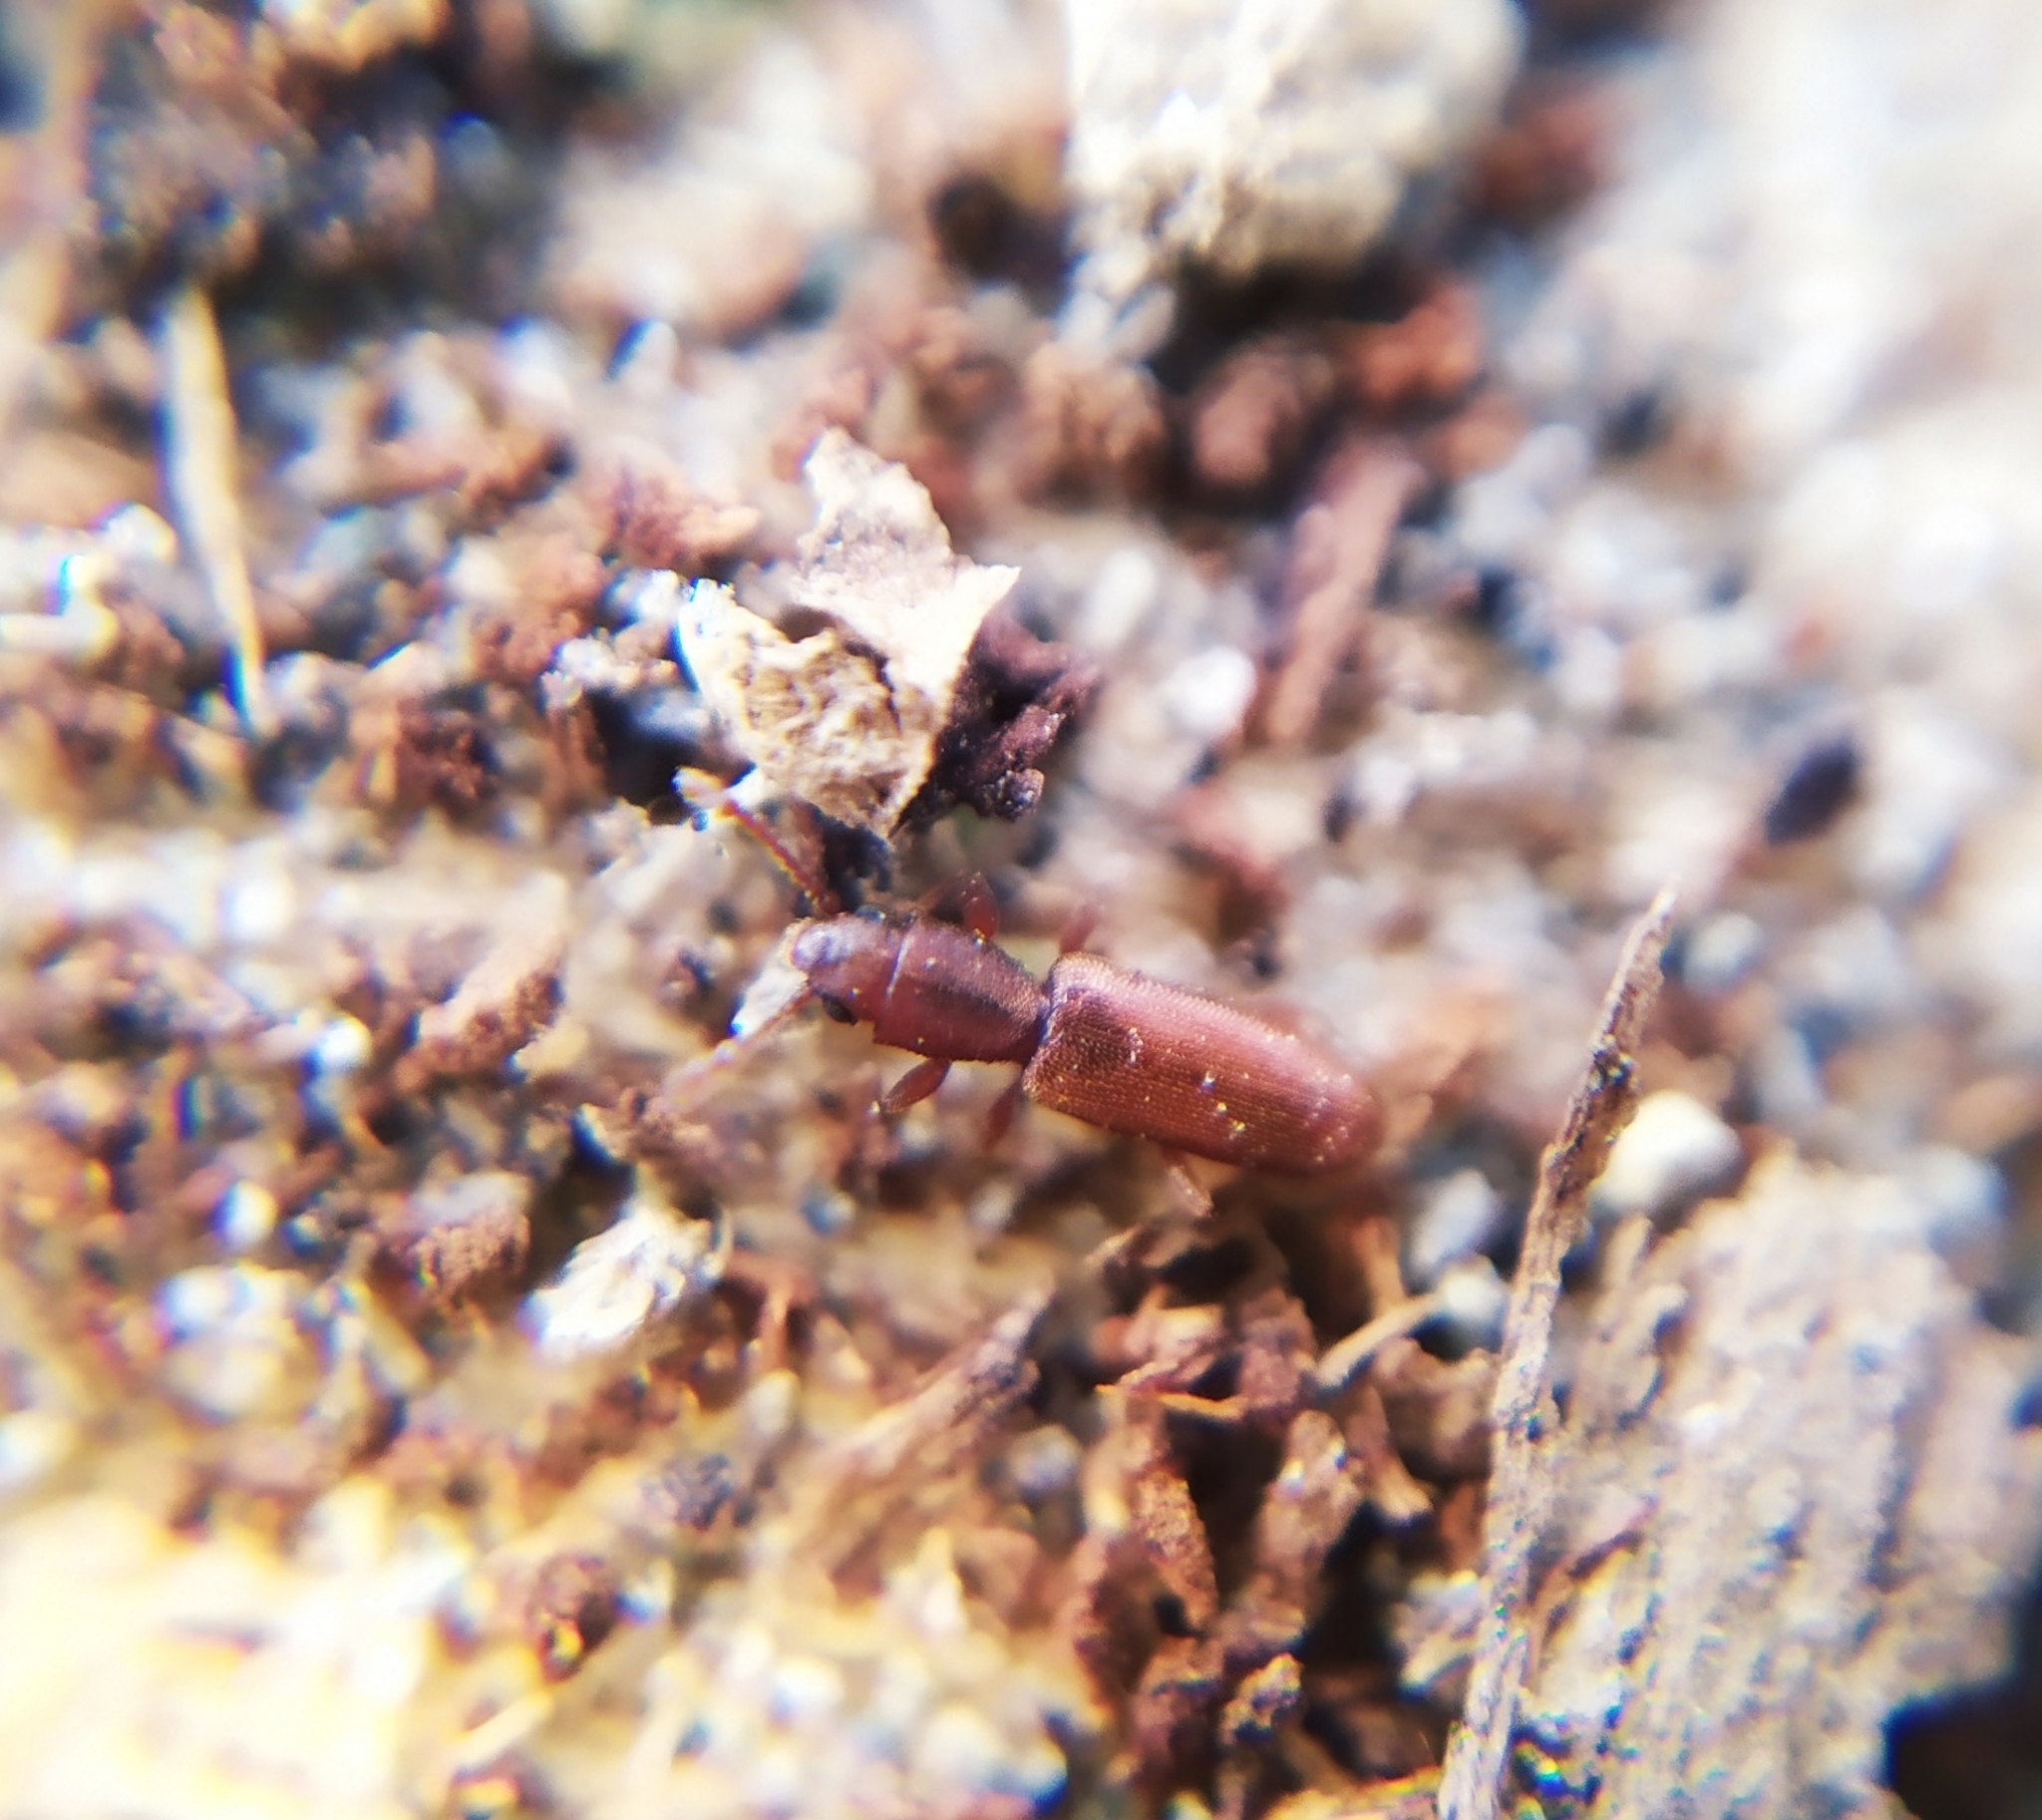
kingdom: Animalia
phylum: Arthropoda
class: Insecta
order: Coleoptera
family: Silvanidae
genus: Silvanus
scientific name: Silvanus unidentatus
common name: One-toothed silvan flat bark beetle
